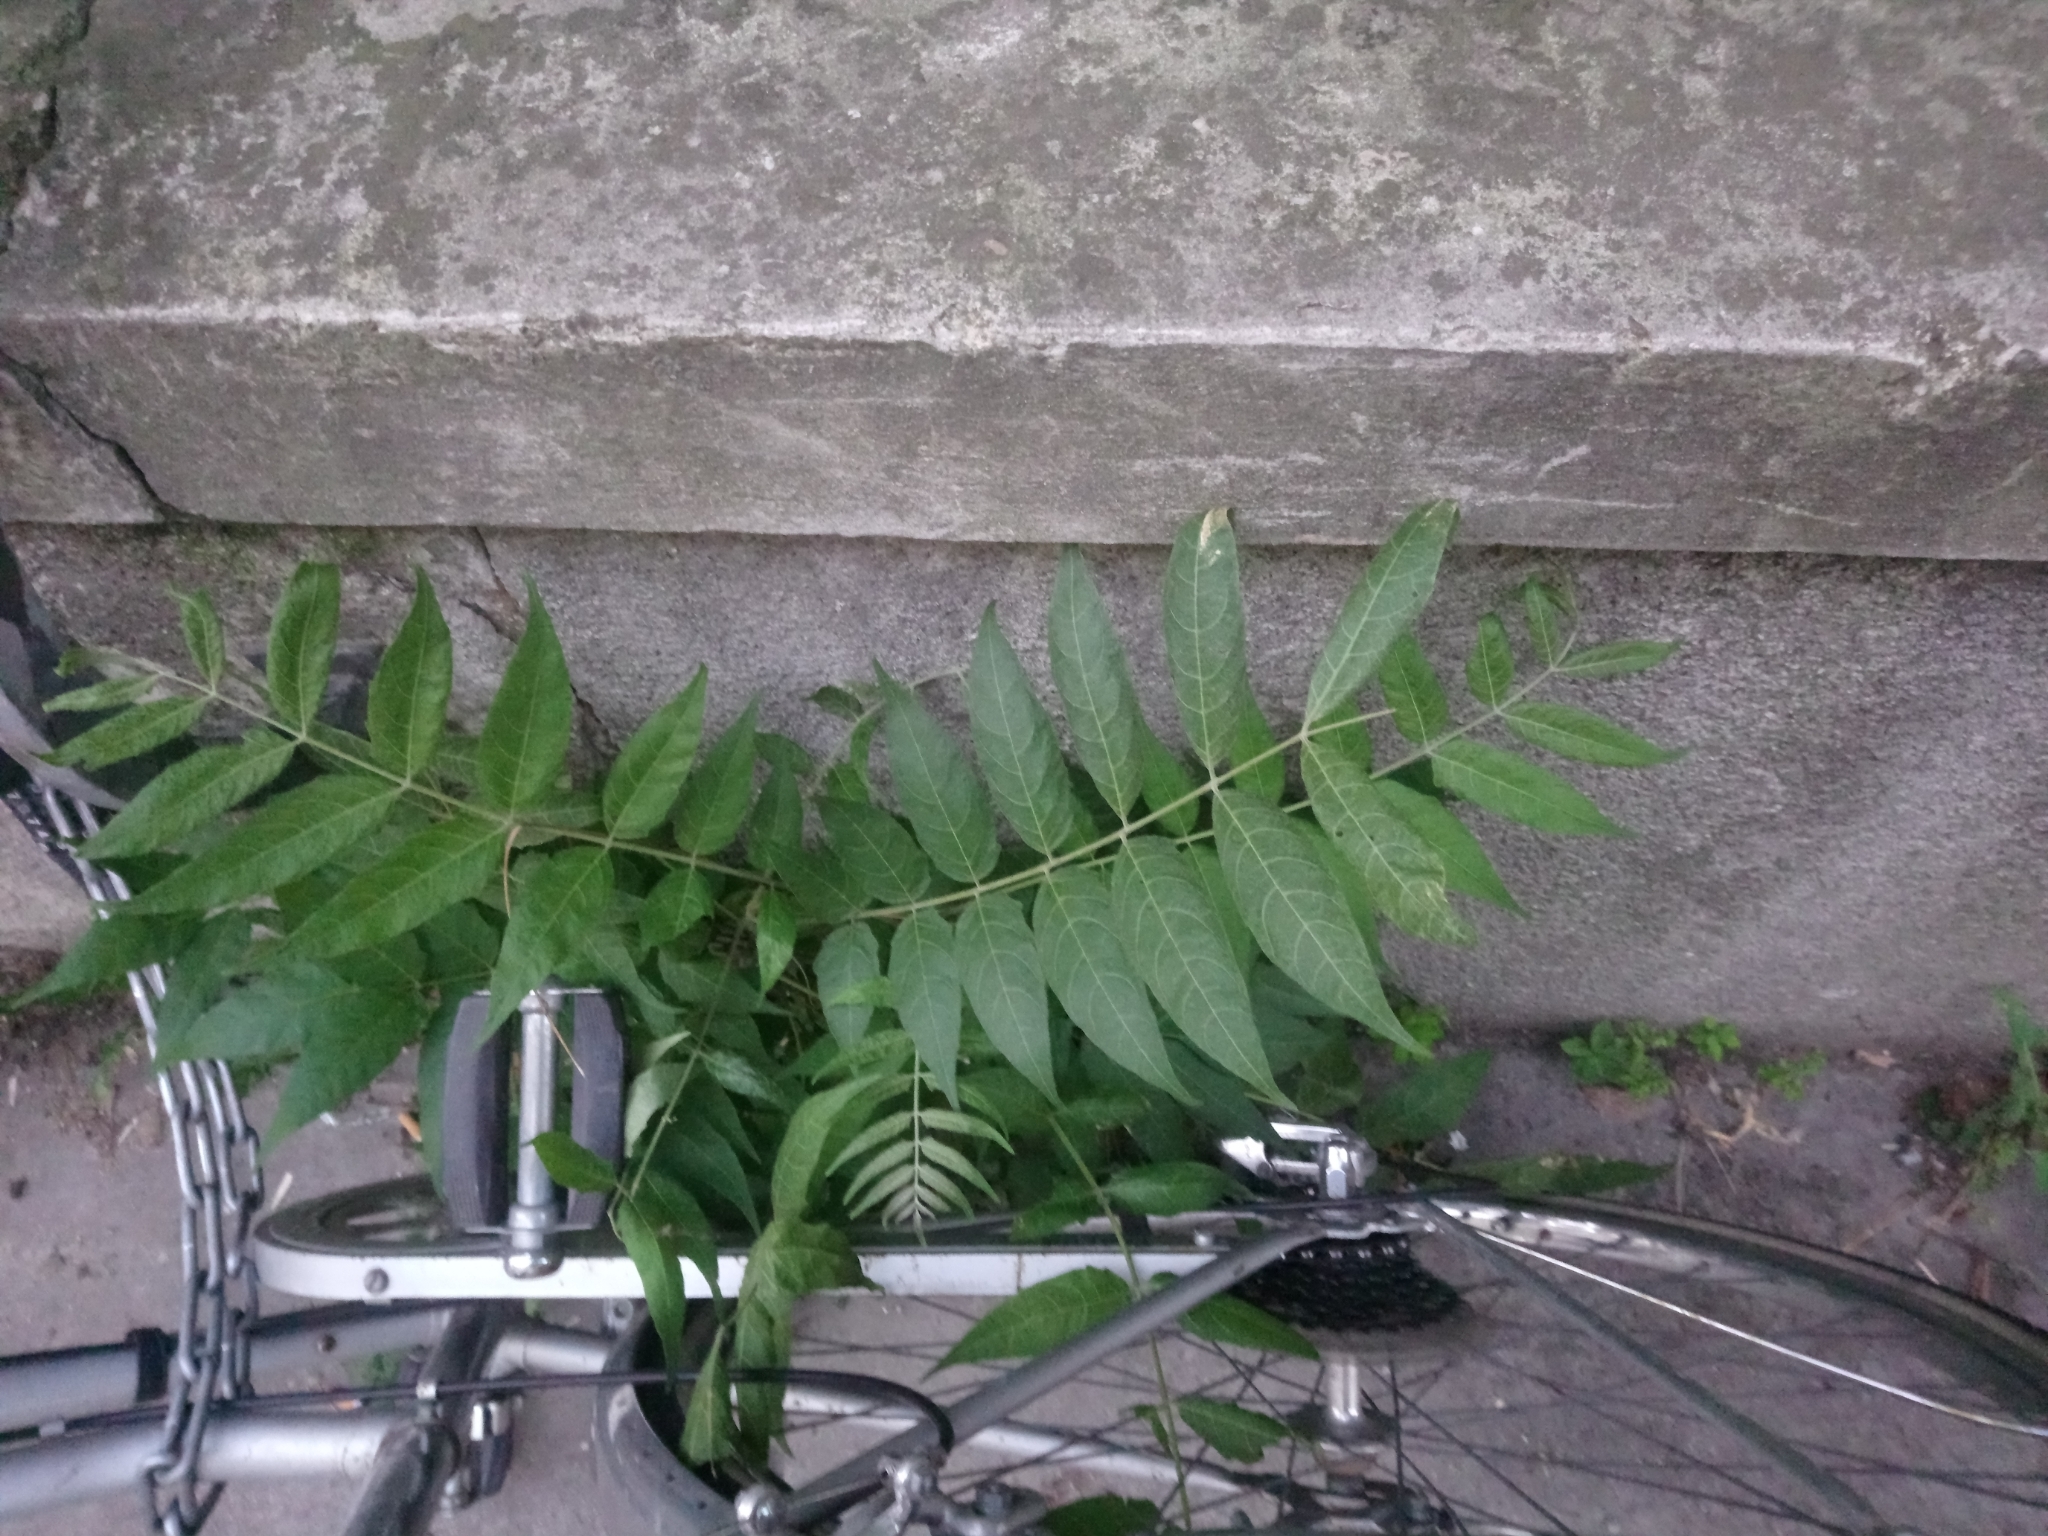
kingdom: Plantae
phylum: Tracheophyta
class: Magnoliopsida
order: Sapindales
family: Simaroubaceae
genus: Ailanthus
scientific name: Ailanthus altissima
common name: Tree-of-heaven
